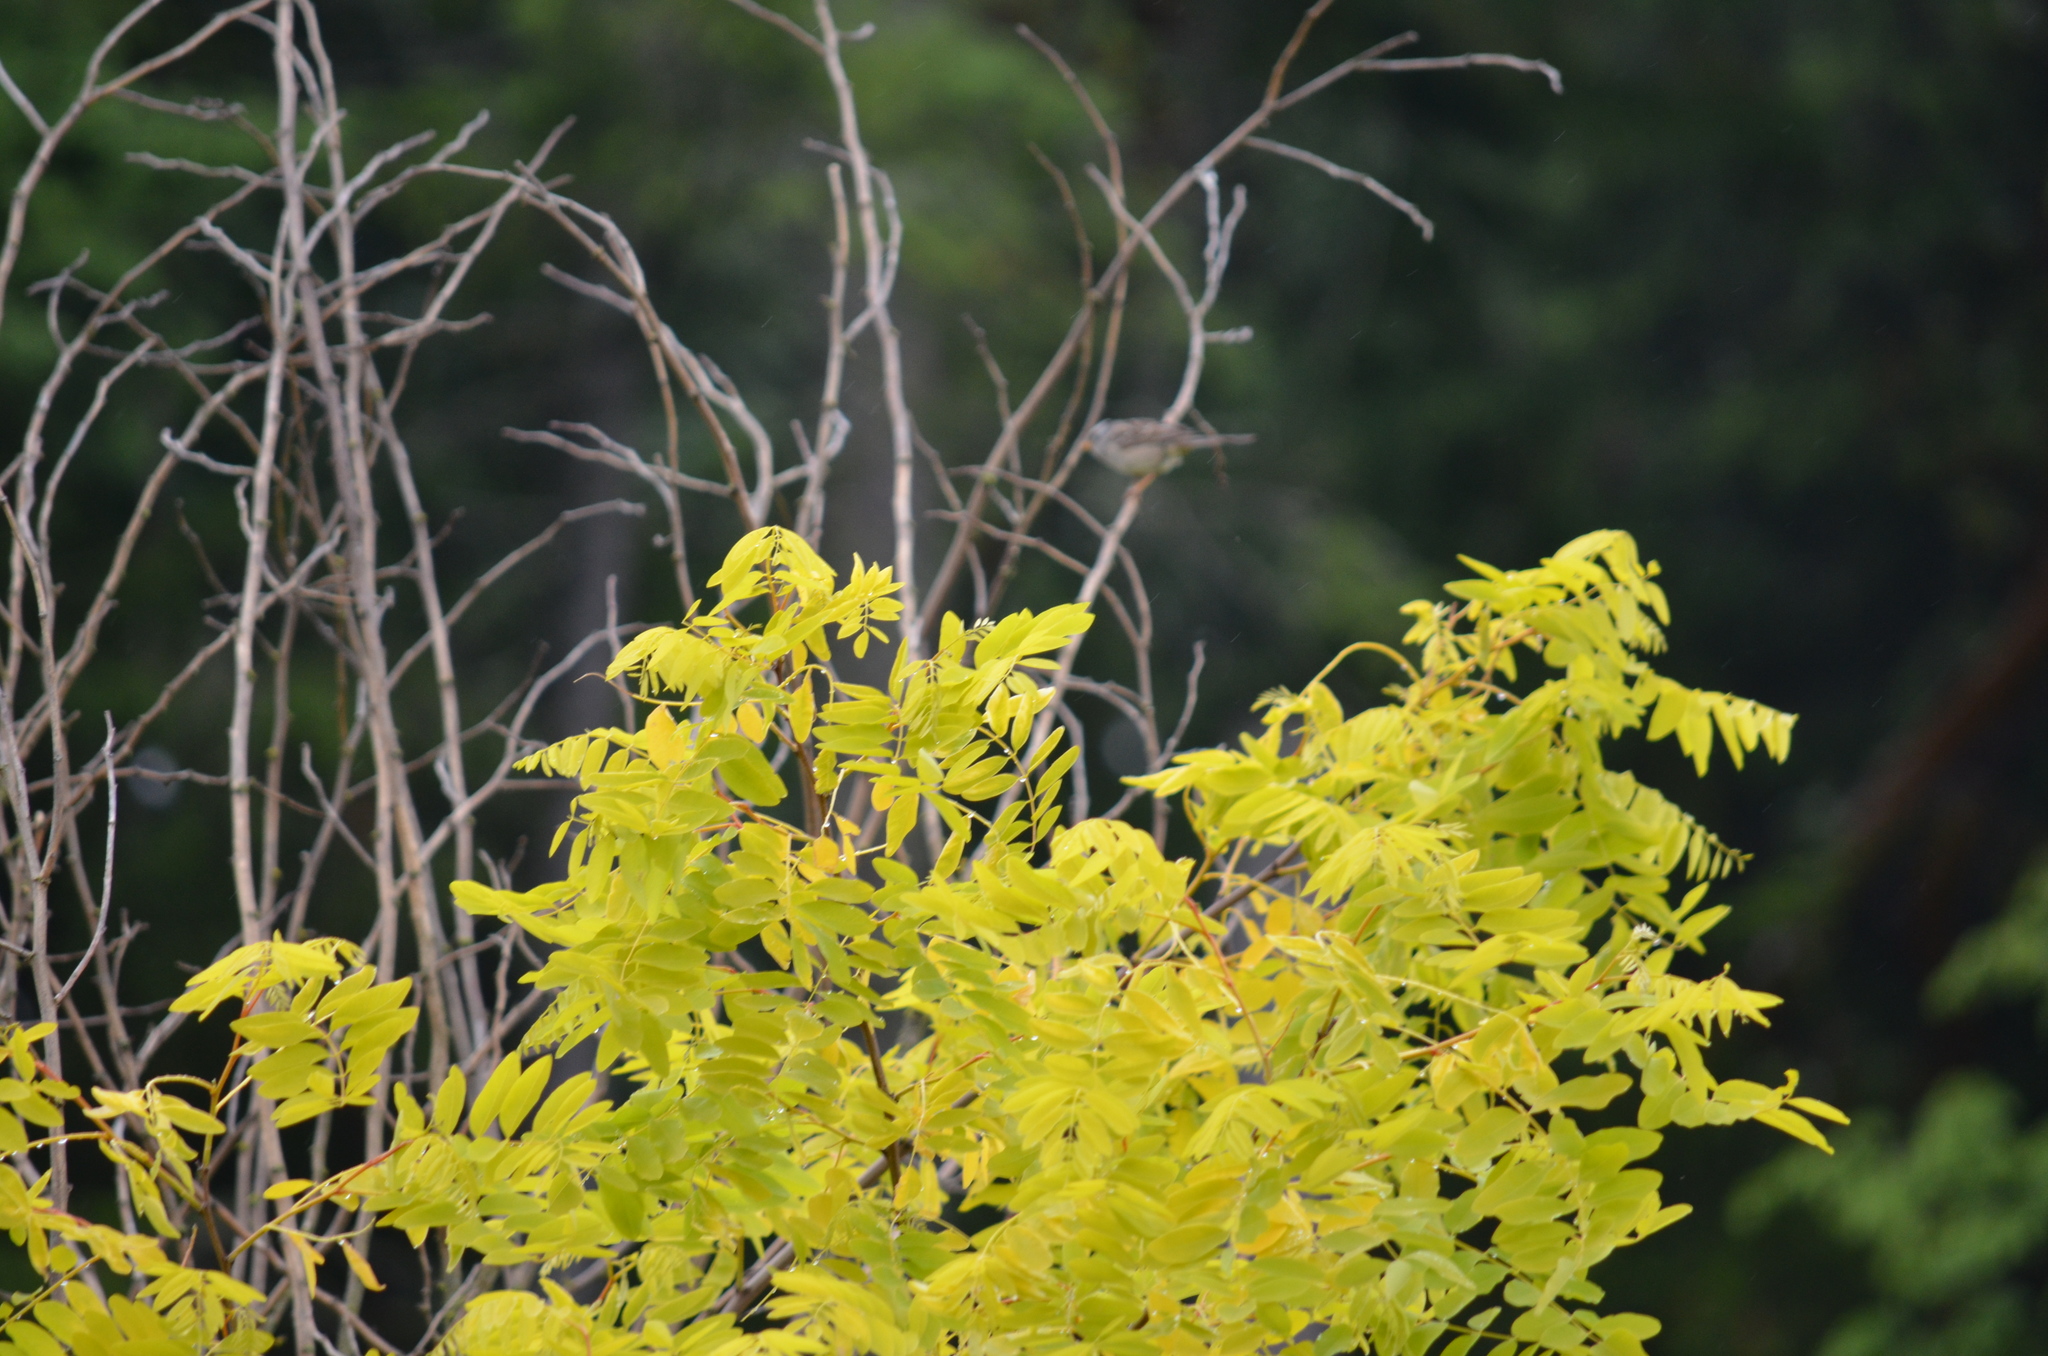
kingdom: Animalia
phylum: Chordata
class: Aves
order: Passeriformes
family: Passerellidae
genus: Zonotrichia
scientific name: Zonotrichia leucophrys
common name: White-crowned sparrow
